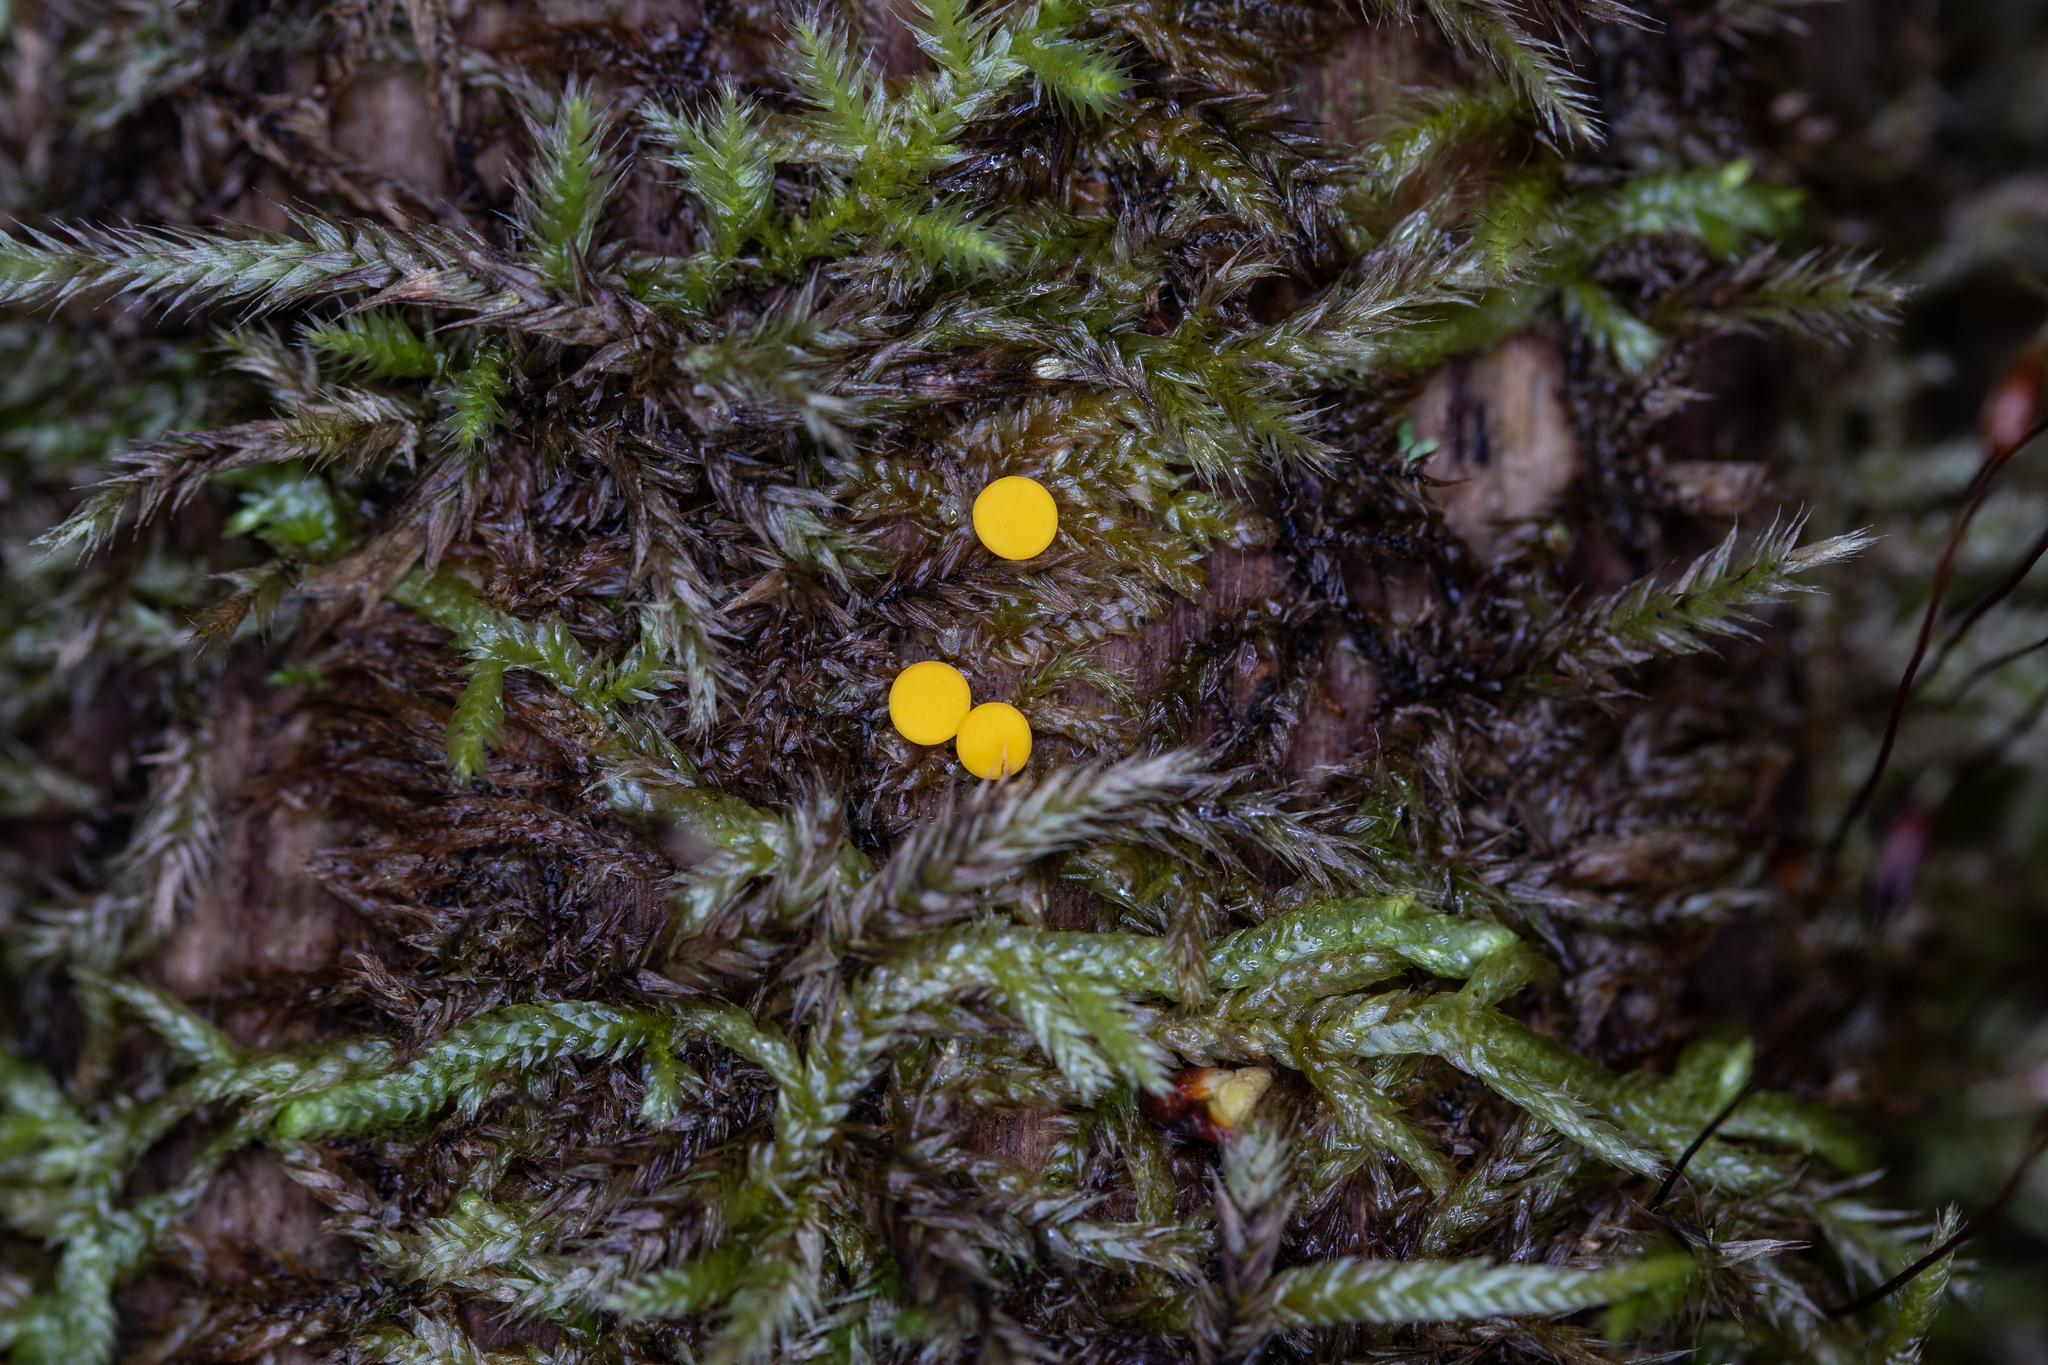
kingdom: Fungi
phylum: Ascomycota
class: Leotiomycetes
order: Helotiales
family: Pezizellaceae
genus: Calycina
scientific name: Calycina citrina
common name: Yellow fairy cups
